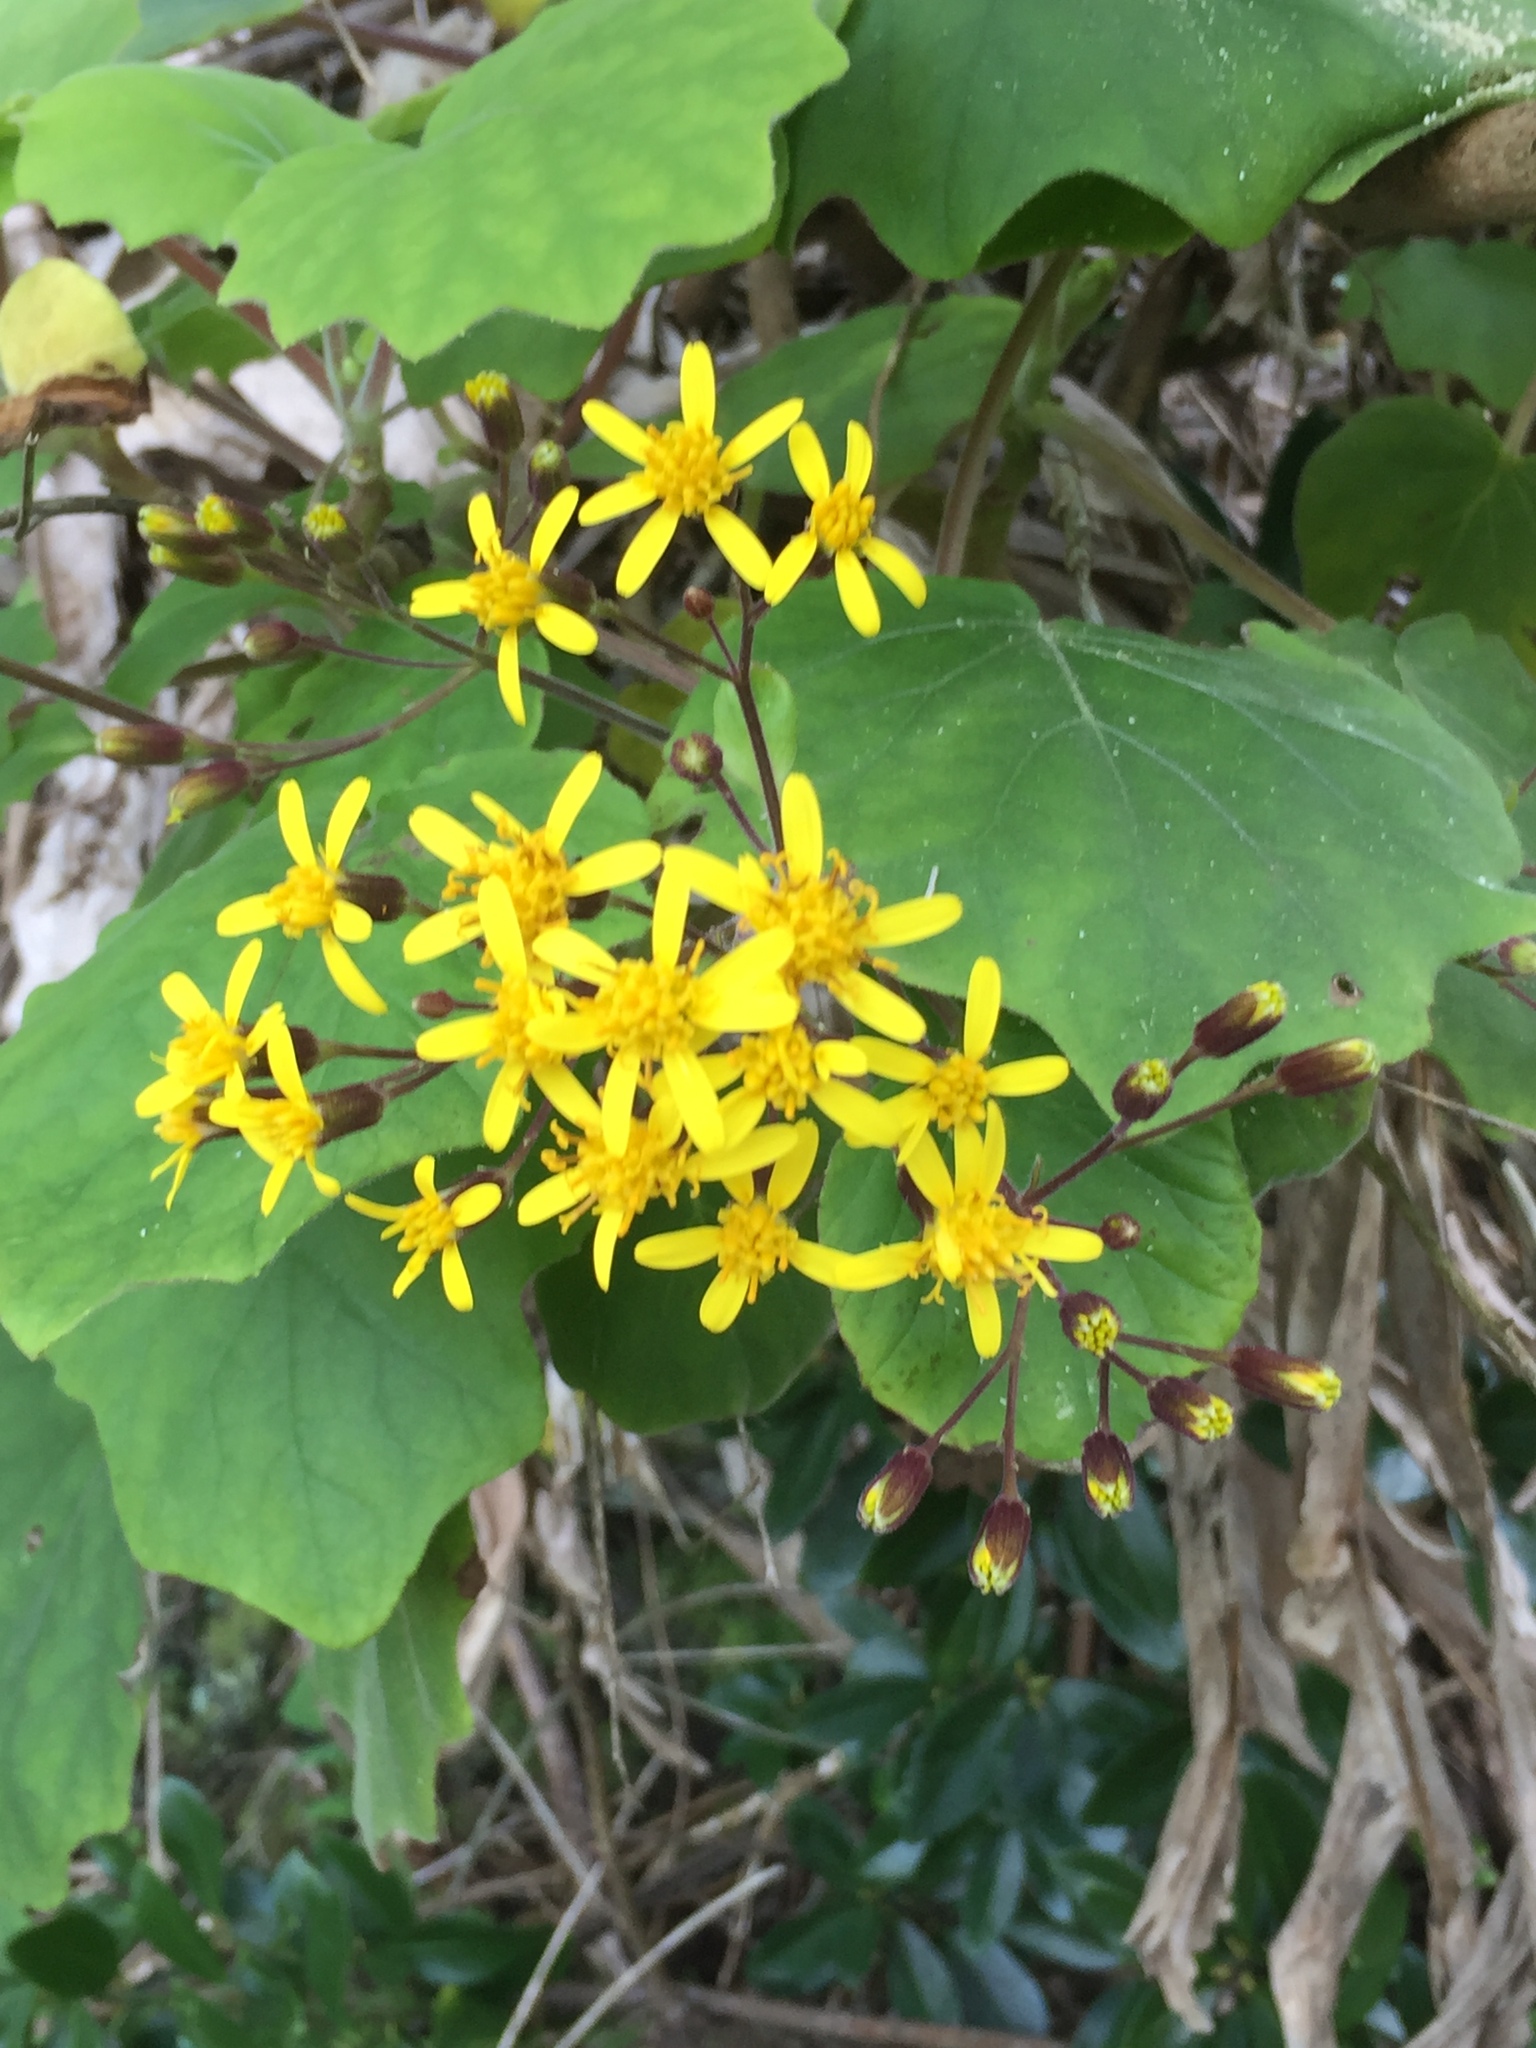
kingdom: Plantae
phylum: Tracheophyta
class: Magnoliopsida
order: Asterales
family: Asteraceae
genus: Roldana
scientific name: Roldana petasitis
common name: California-geranium
